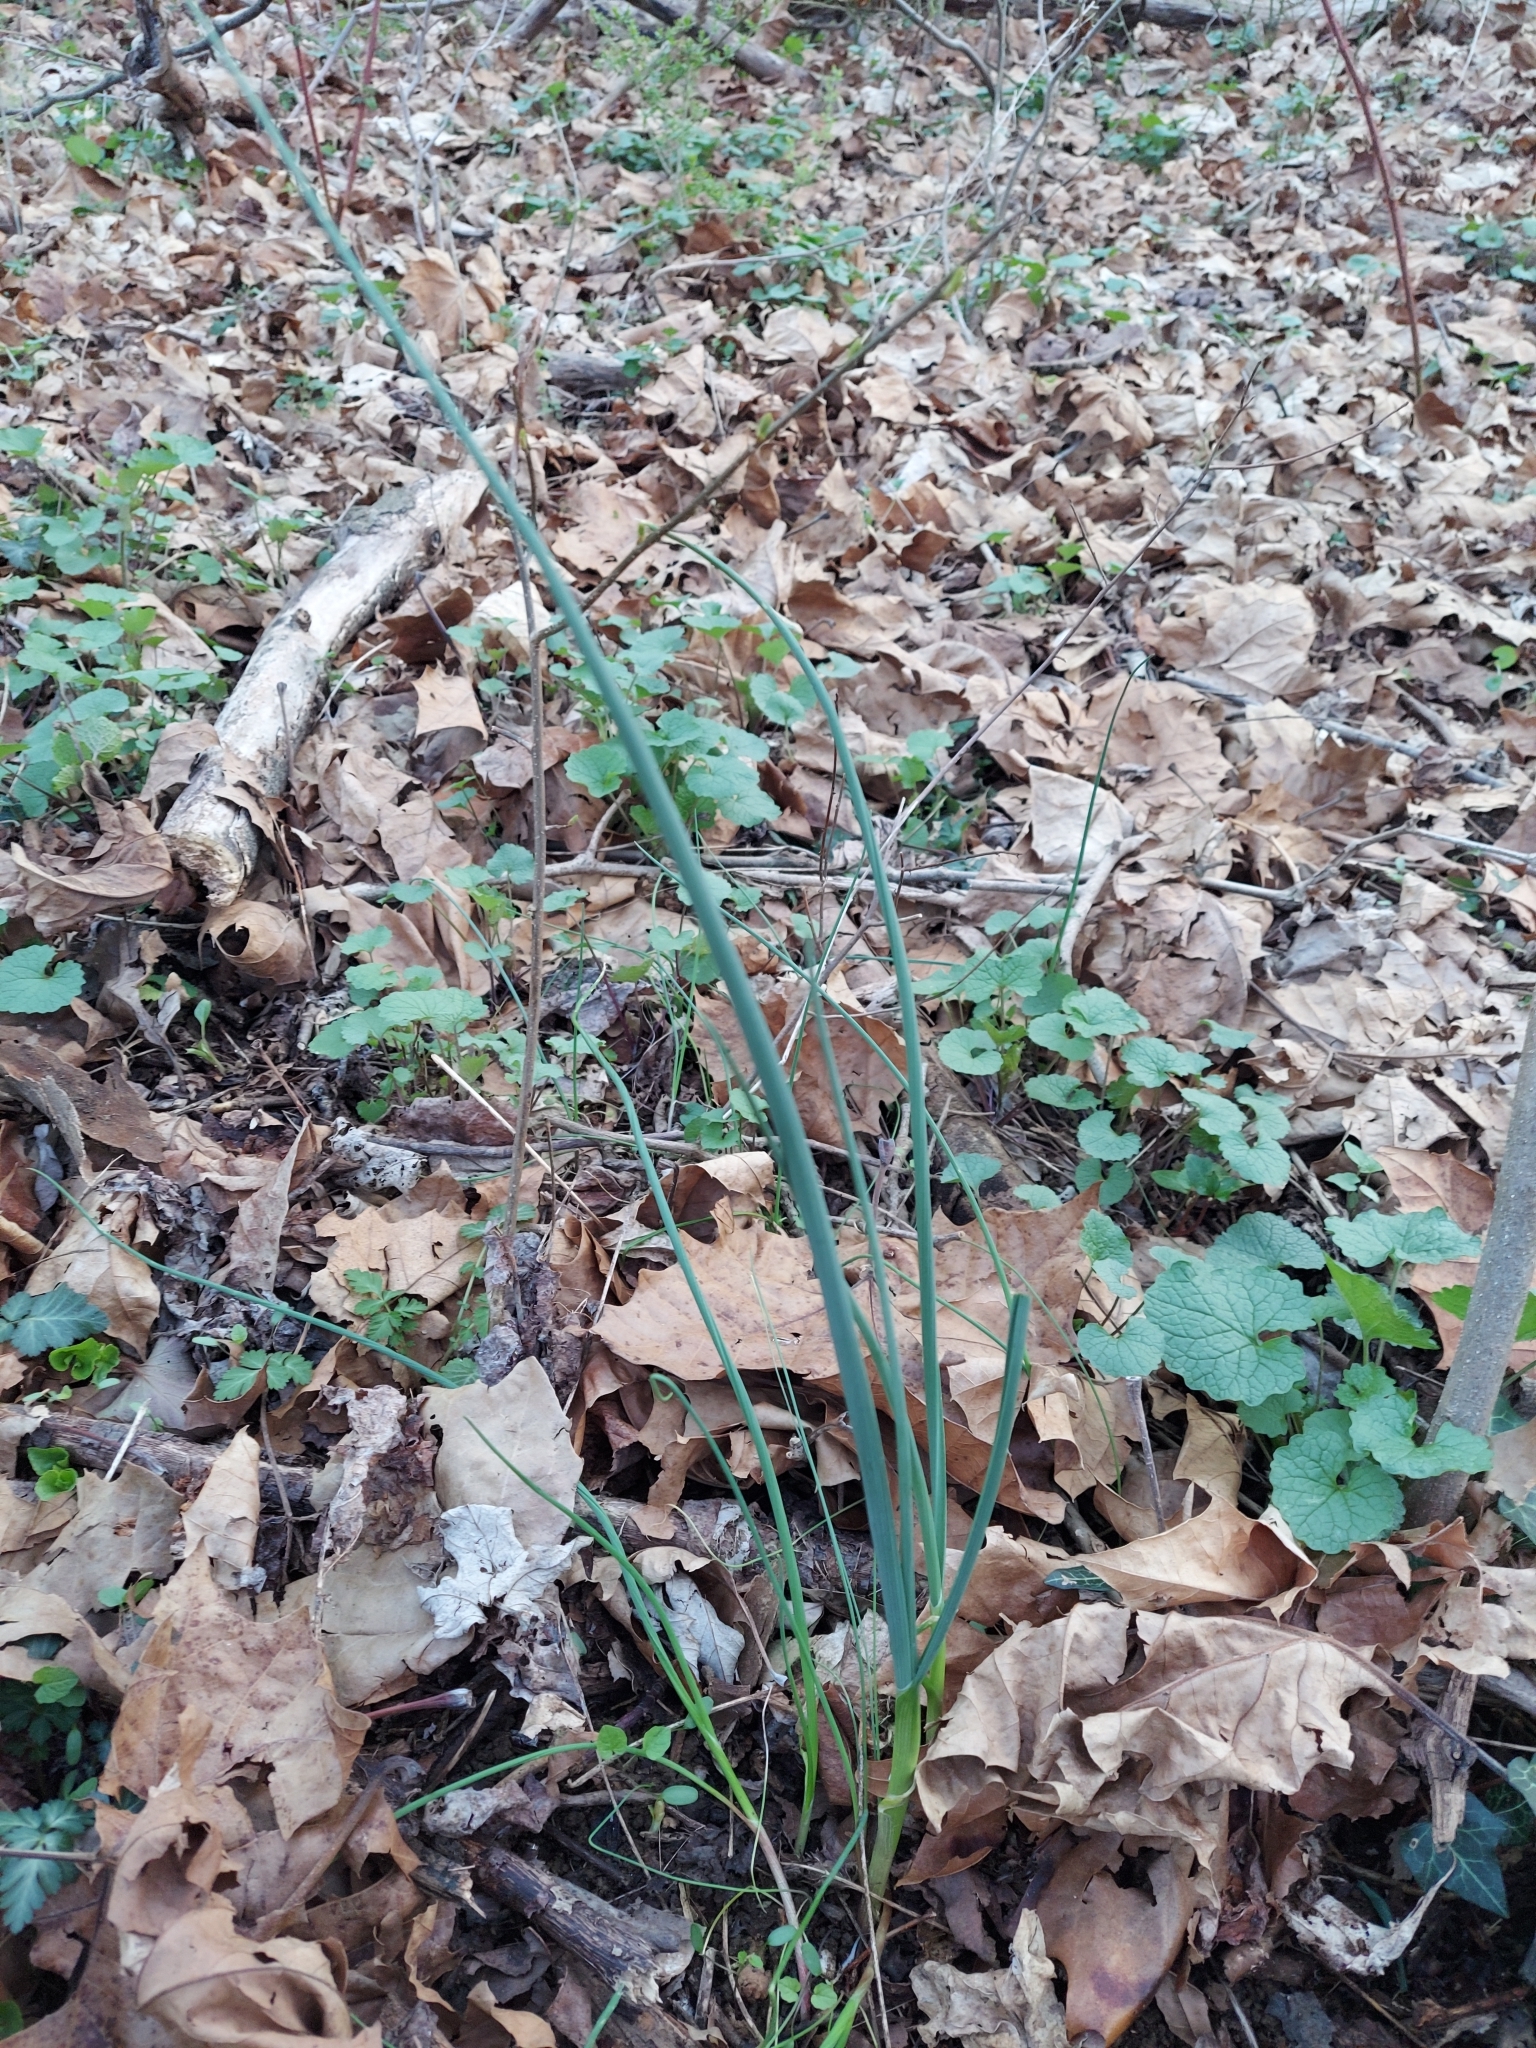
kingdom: Plantae
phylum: Tracheophyta
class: Liliopsida
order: Asparagales
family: Amaryllidaceae
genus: Allium
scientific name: Allium vineale
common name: Crow garlic
